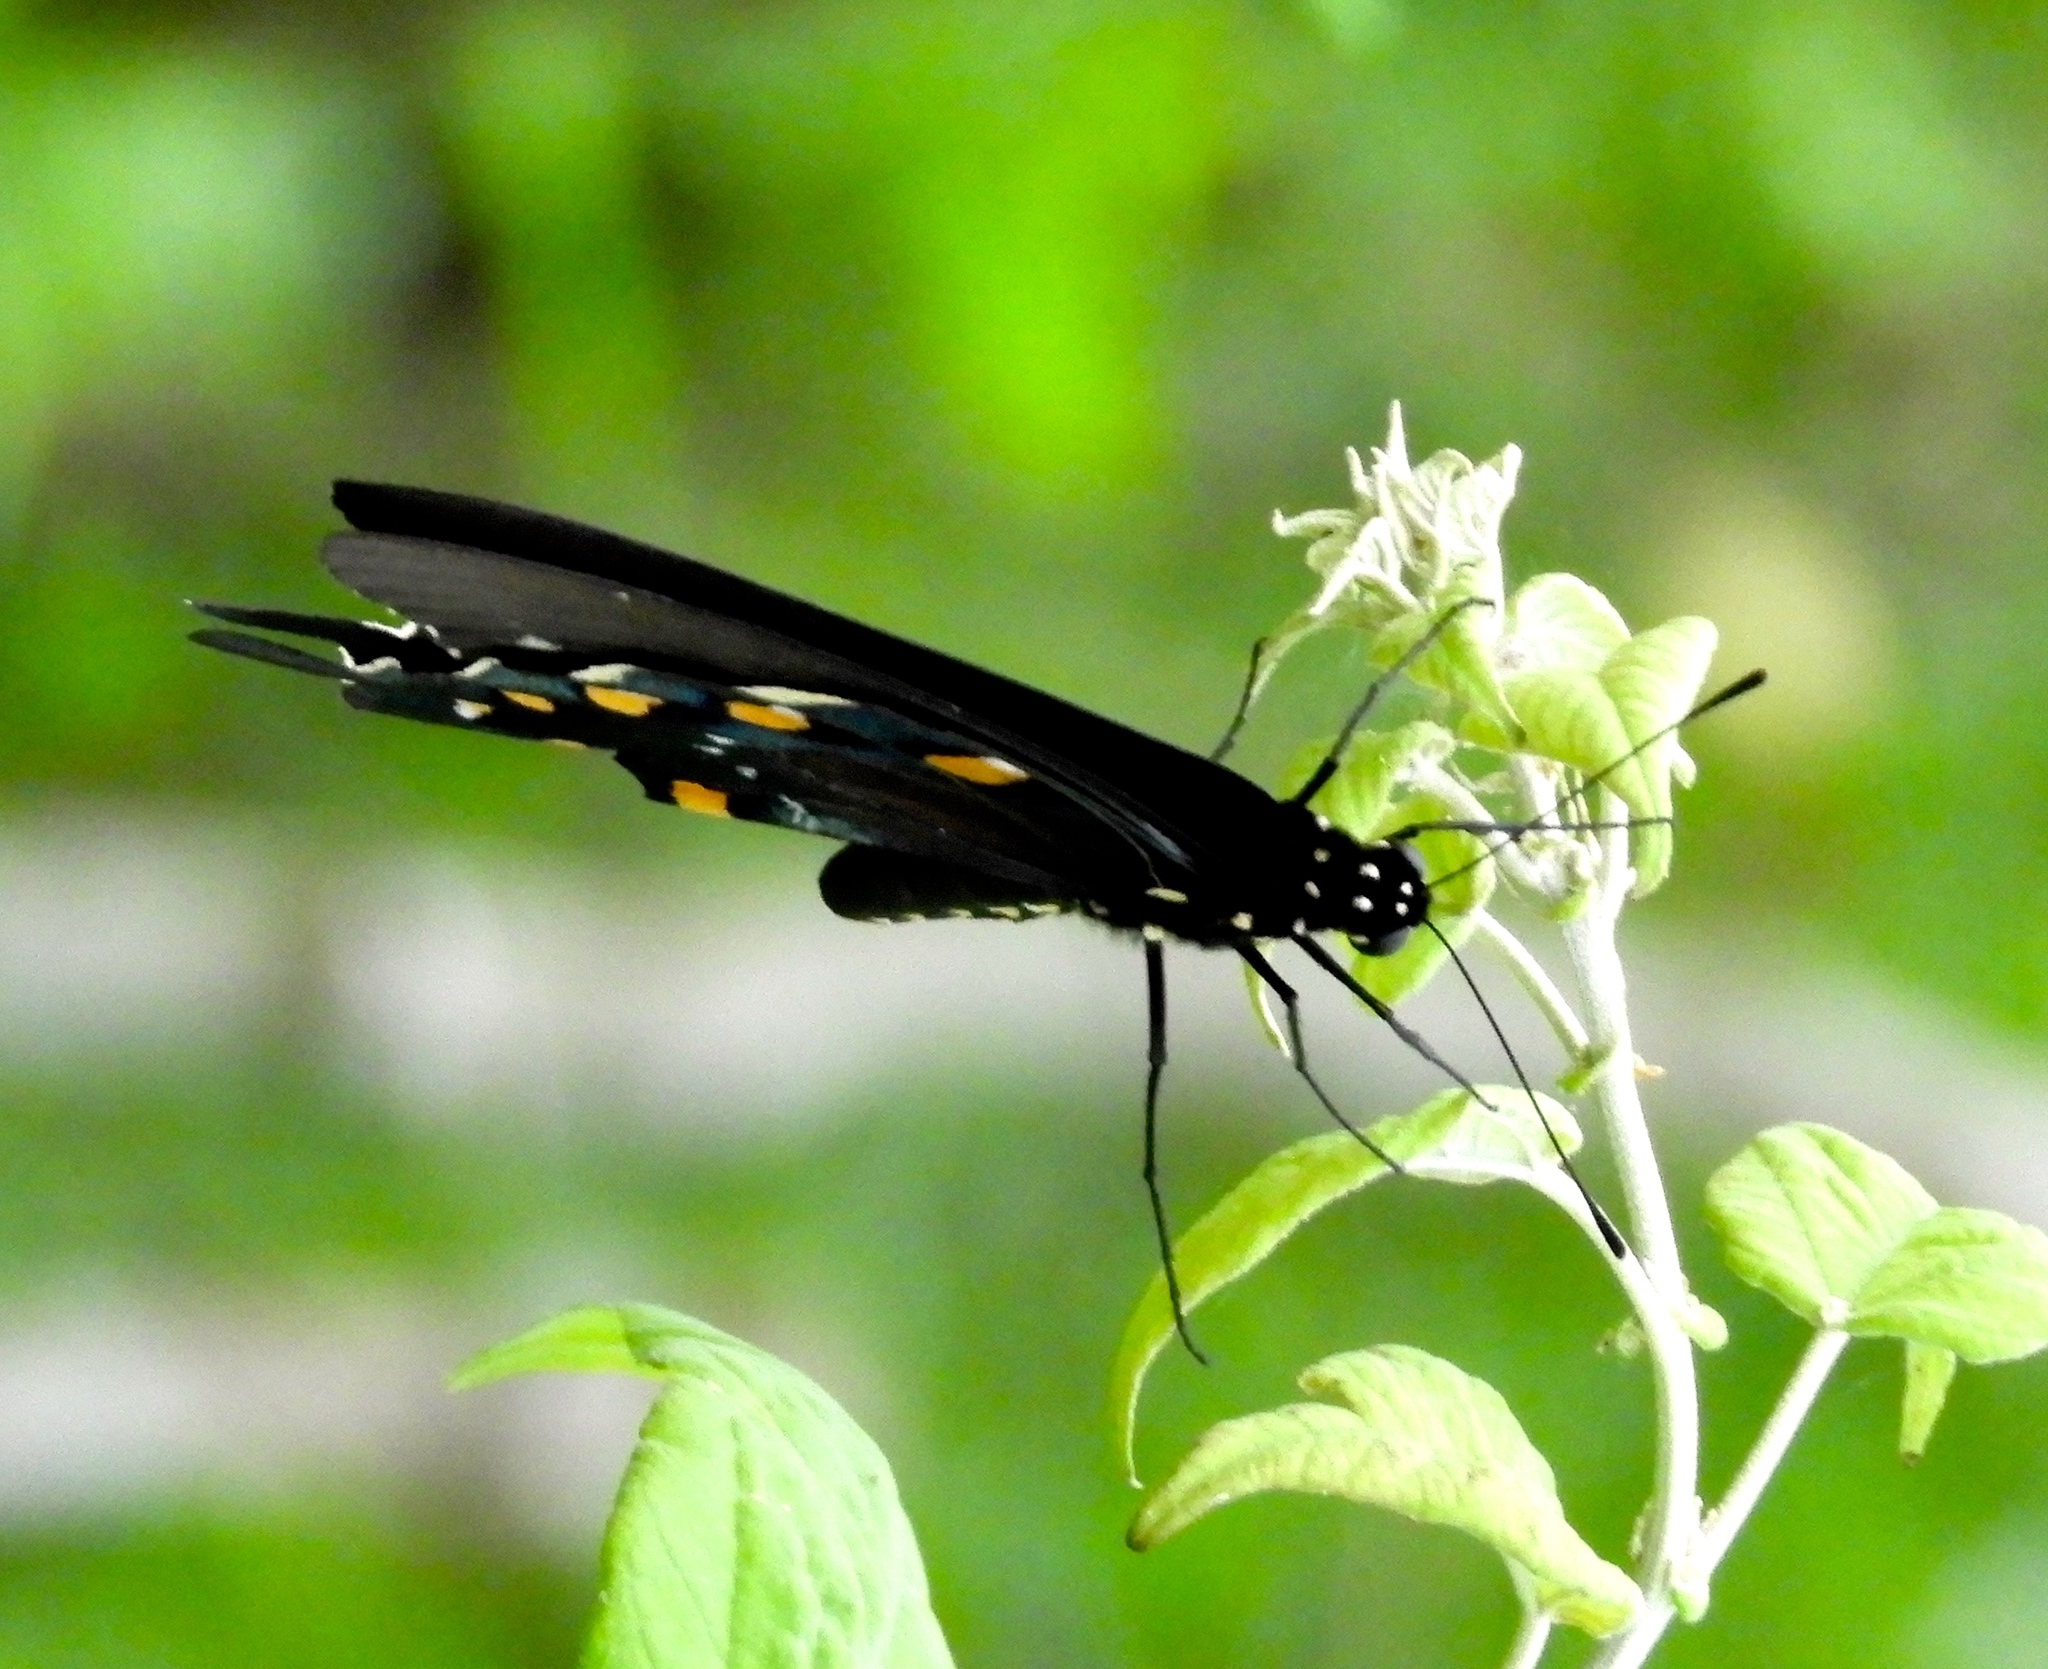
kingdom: Animalia
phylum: Arthropoda
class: Insecta
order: Lepidoptera
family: Papilionidae
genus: Battus
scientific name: Battus philenor
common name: Pipevine swallowtail
